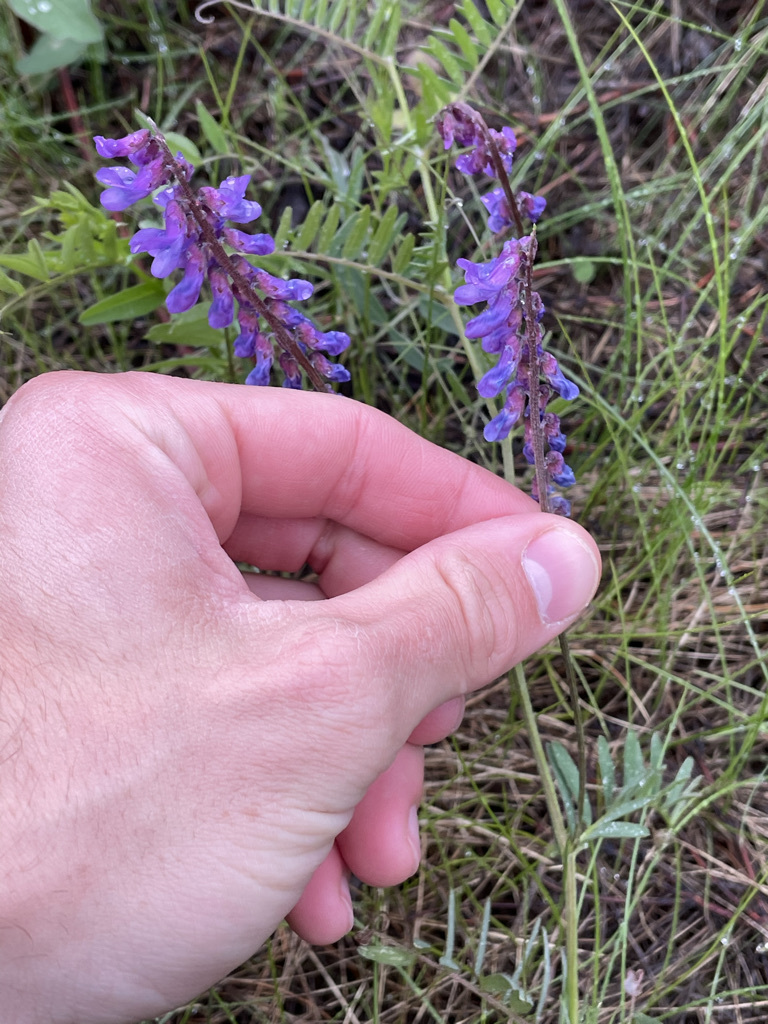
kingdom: Plantae
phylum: Tracheophyta
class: Magnoliopsida
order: Fabales
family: Fabaceae
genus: Vicia
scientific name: Vicia cracca
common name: Bird vetch
